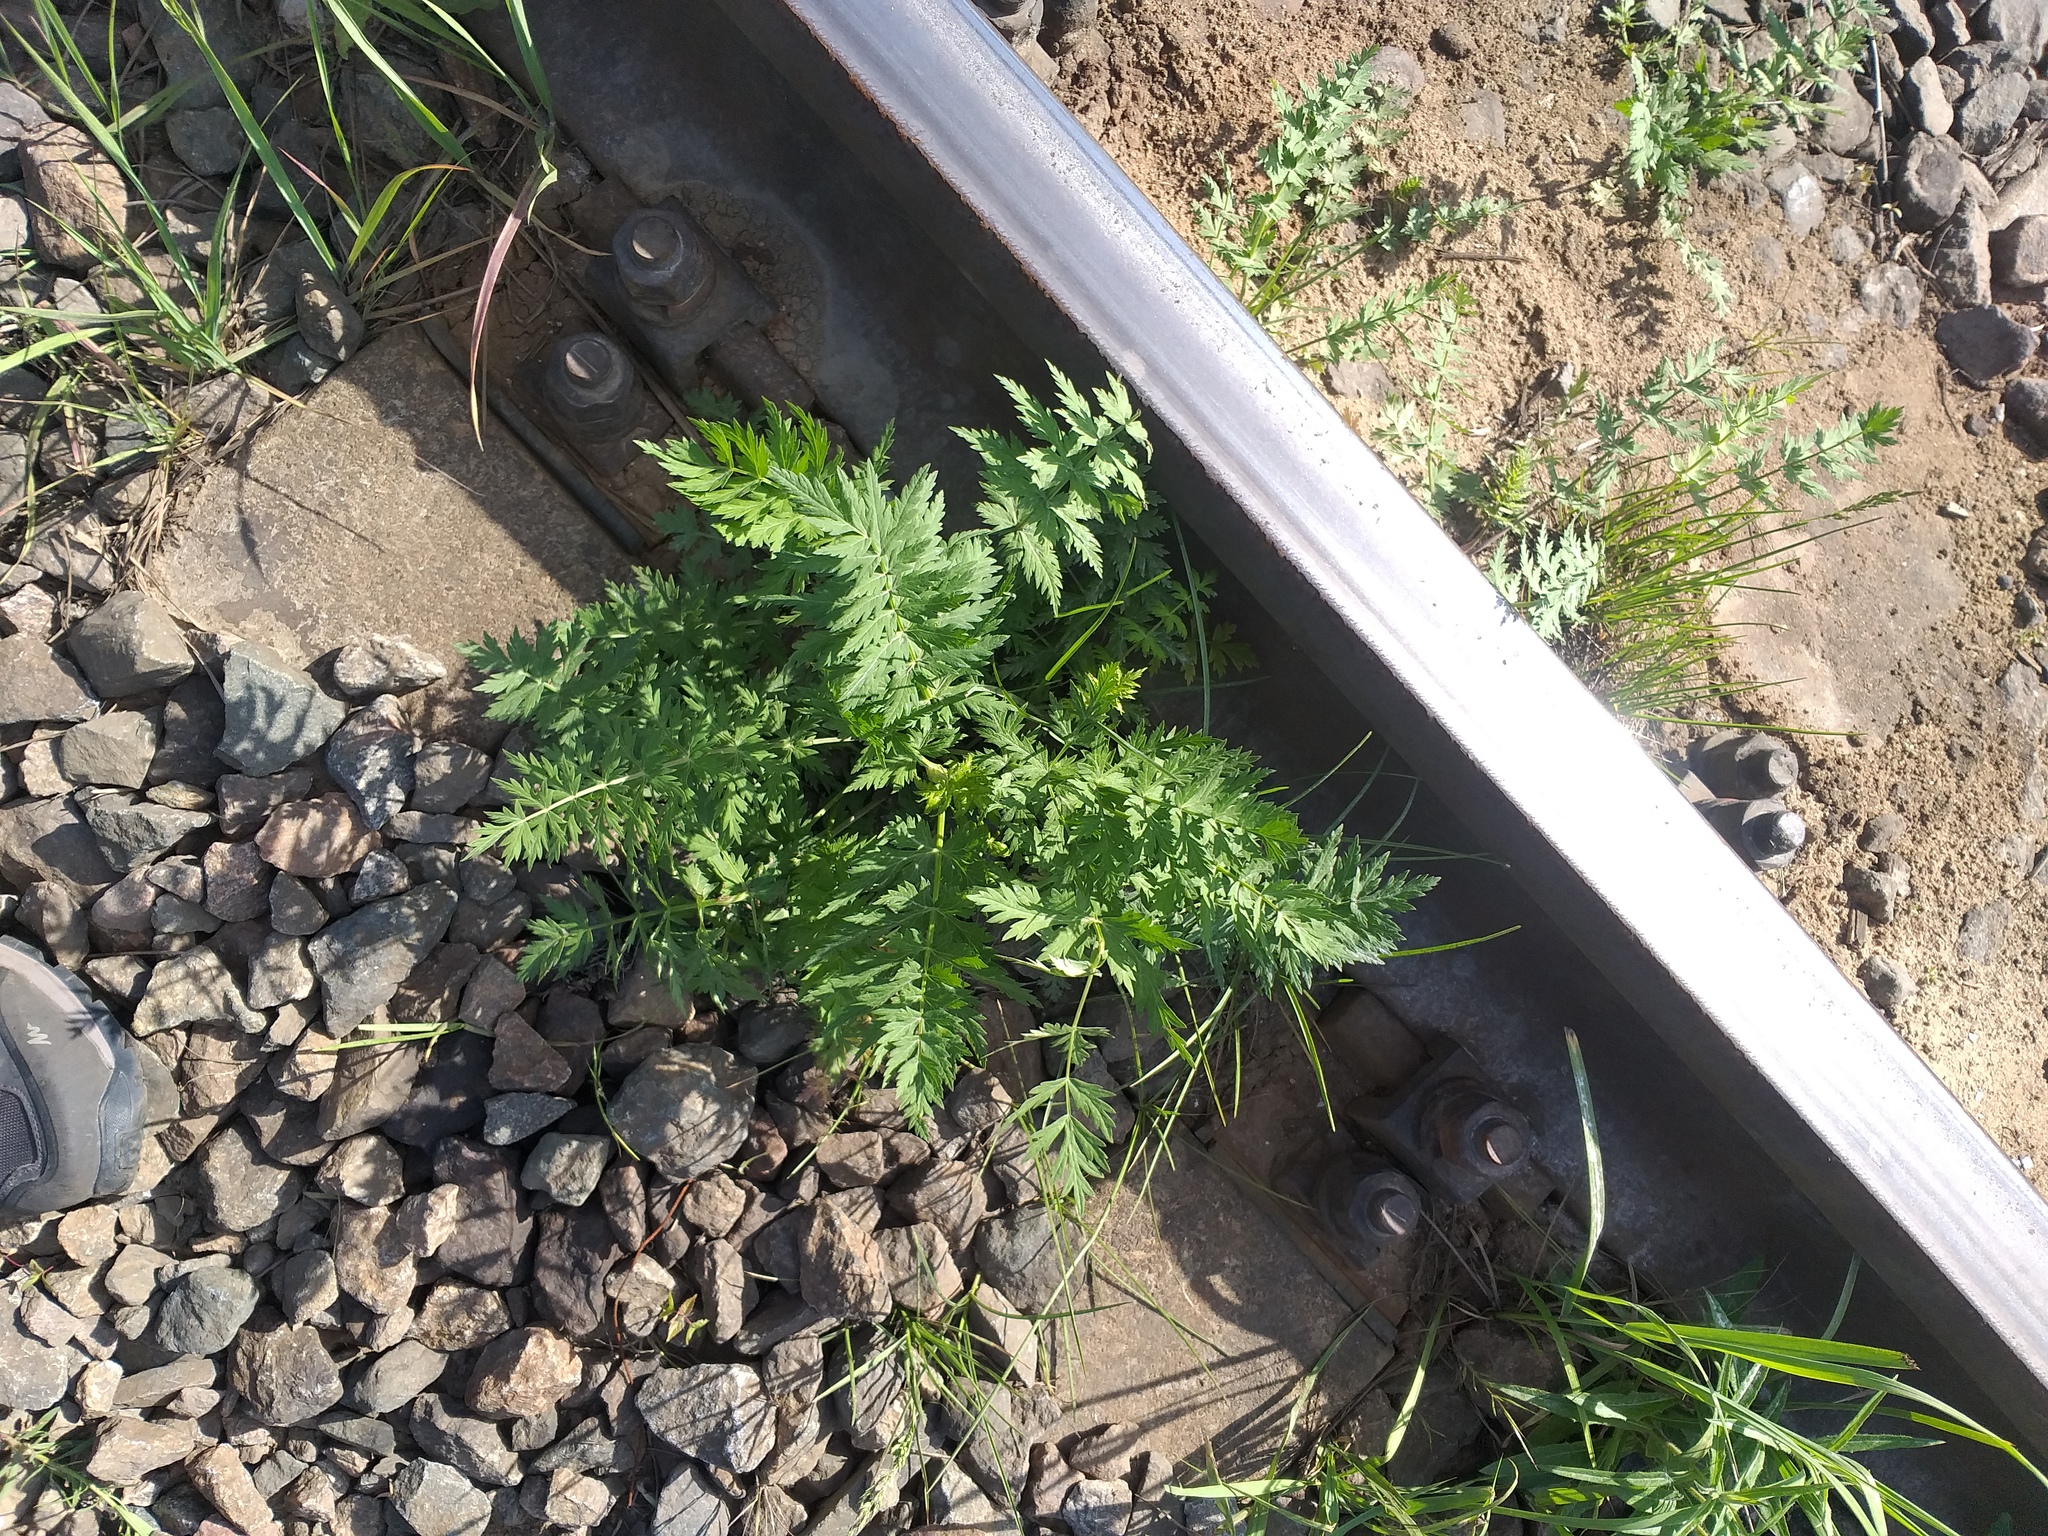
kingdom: Plantae
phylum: Tracheophyta
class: Magnoliopsida
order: Apiales
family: Apiaceae
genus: Seseli
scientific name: Seseli libanotis
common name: Mooncarrot
